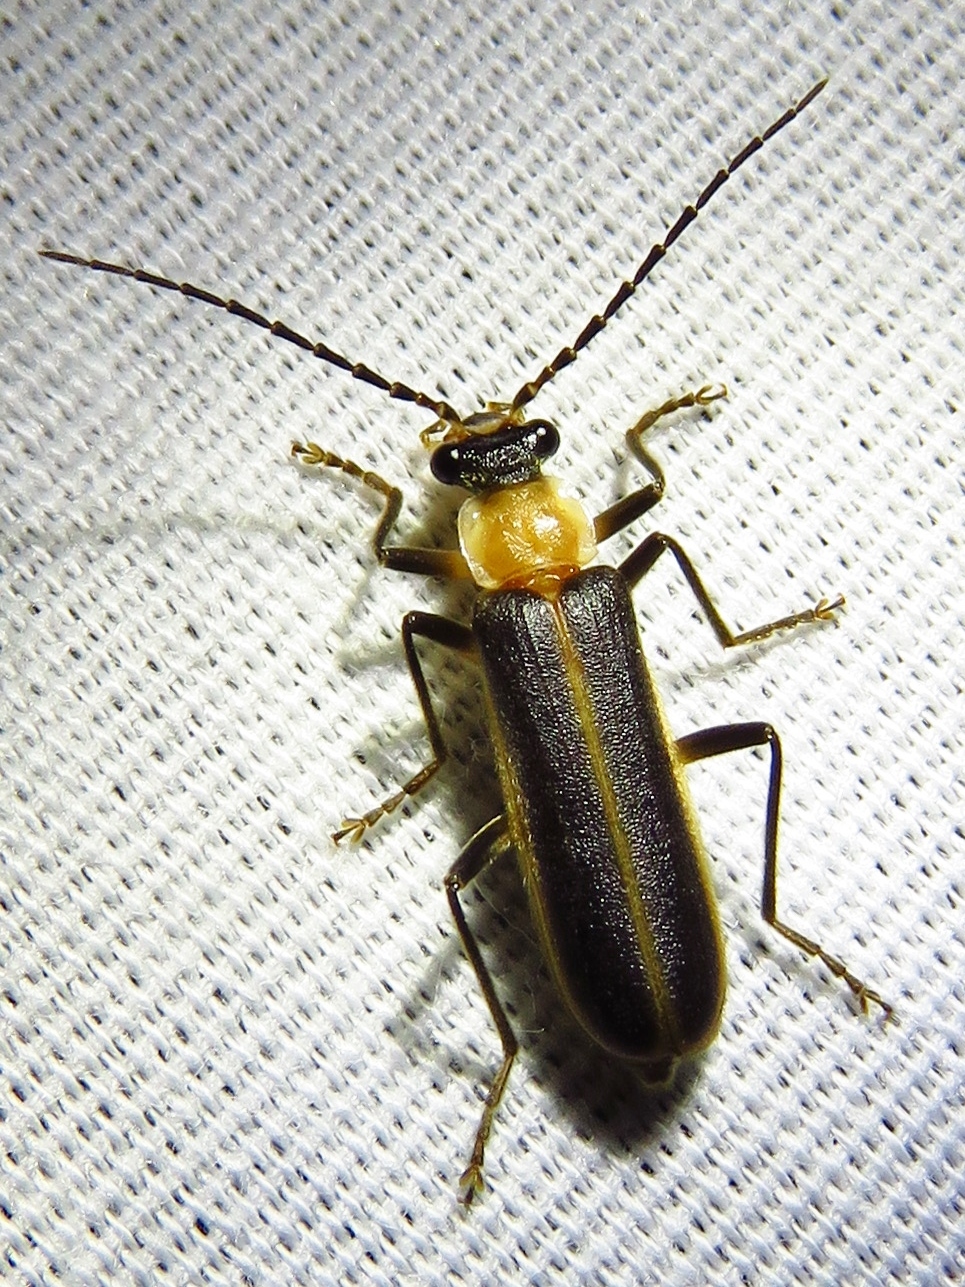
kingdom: Animalia
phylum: Arthropoda
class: Insecta
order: Coleoptera
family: Cantharidae
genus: Podabrus
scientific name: Podabrus flavicollis
